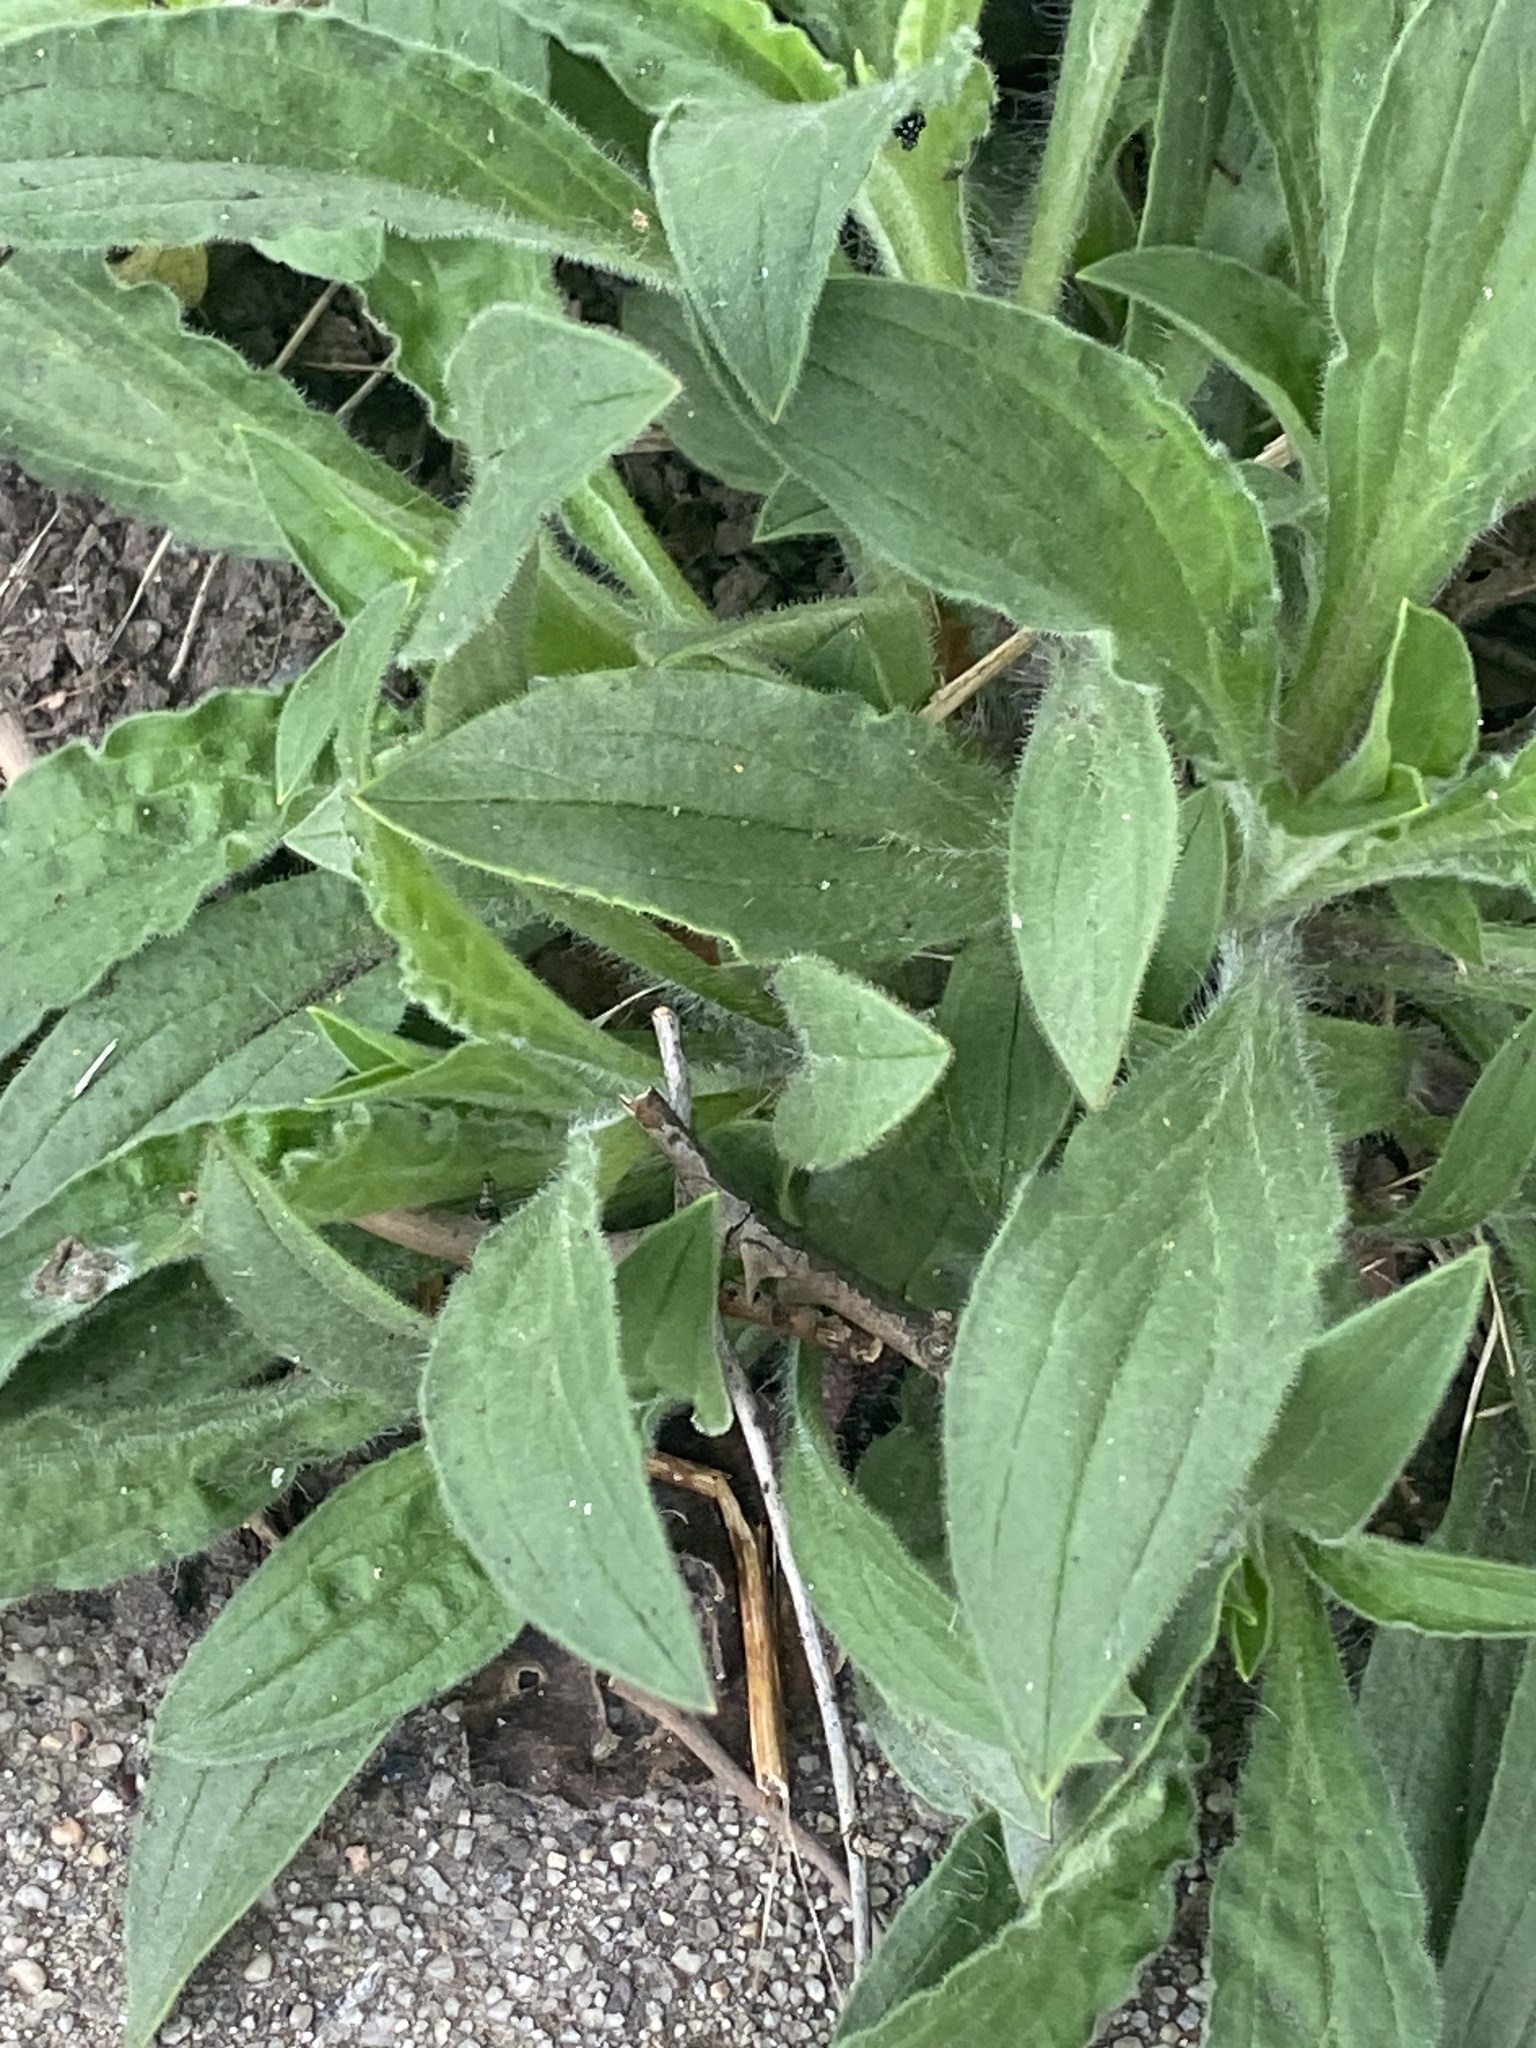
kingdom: Plantae
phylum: Tracheophyta
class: Magnoliopsida
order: Caryophyllales
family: Caryophyllaceae
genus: Silene
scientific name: Silene latifolia
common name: White campion
